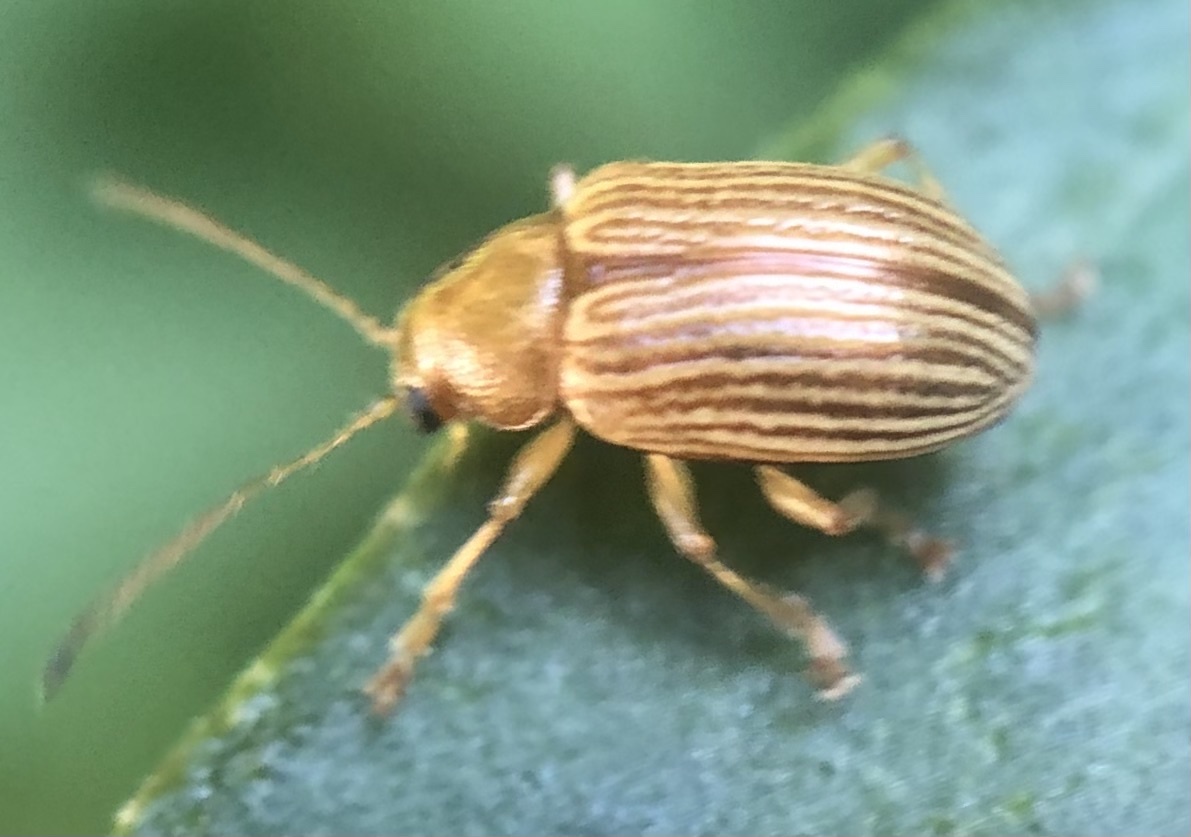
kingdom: Animalia
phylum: Arthropoda
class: Insecta
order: Coleoptera
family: Chrysomelidae
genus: Colaspis
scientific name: Colaspis brunnea
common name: Grape colaspis
